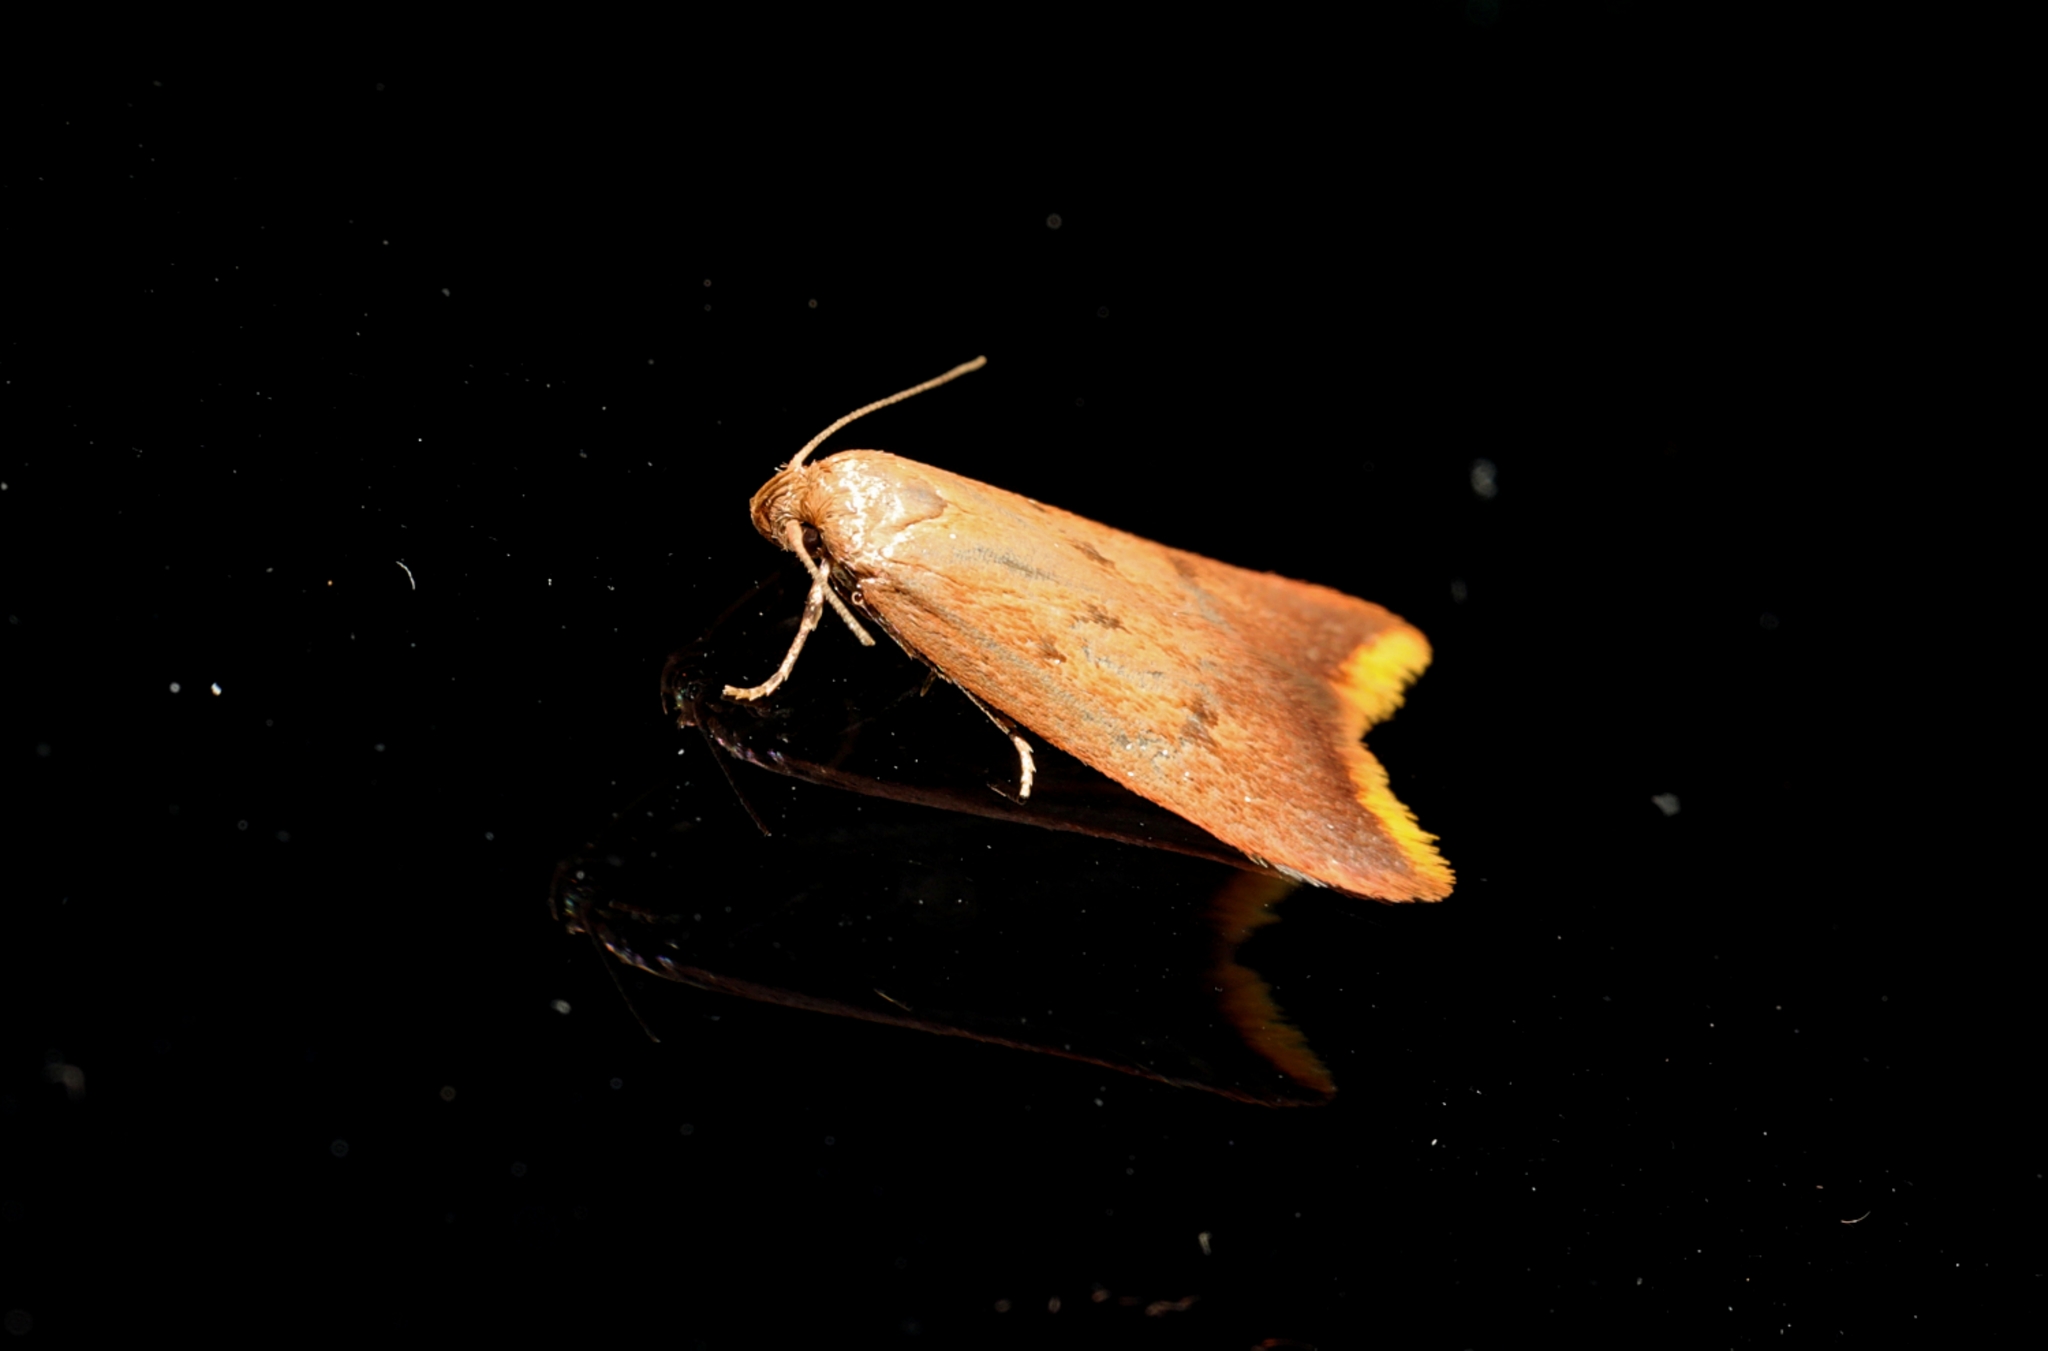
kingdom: Animalia
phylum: Arthropoda
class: Insecta
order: Lepidoptera
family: Oecophoridae
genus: Tachystola
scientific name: Tachystola acroxantha
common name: Ruddy streak
